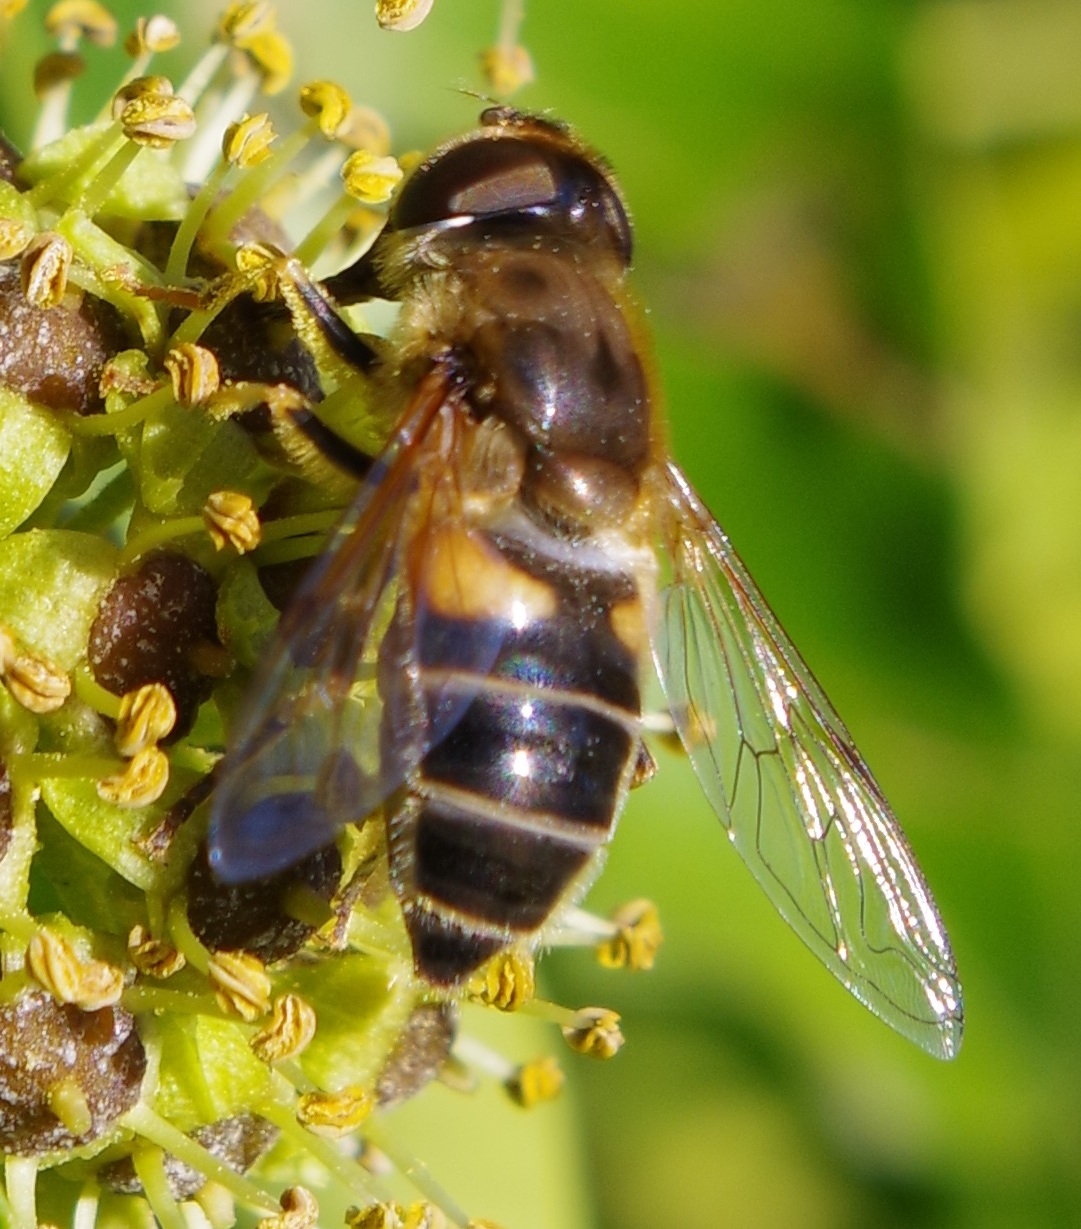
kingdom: Animalia
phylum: Arthropoda
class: Insecta
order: Diptera
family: Syrphidae
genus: Eristalis
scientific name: Eristalis pertinax
